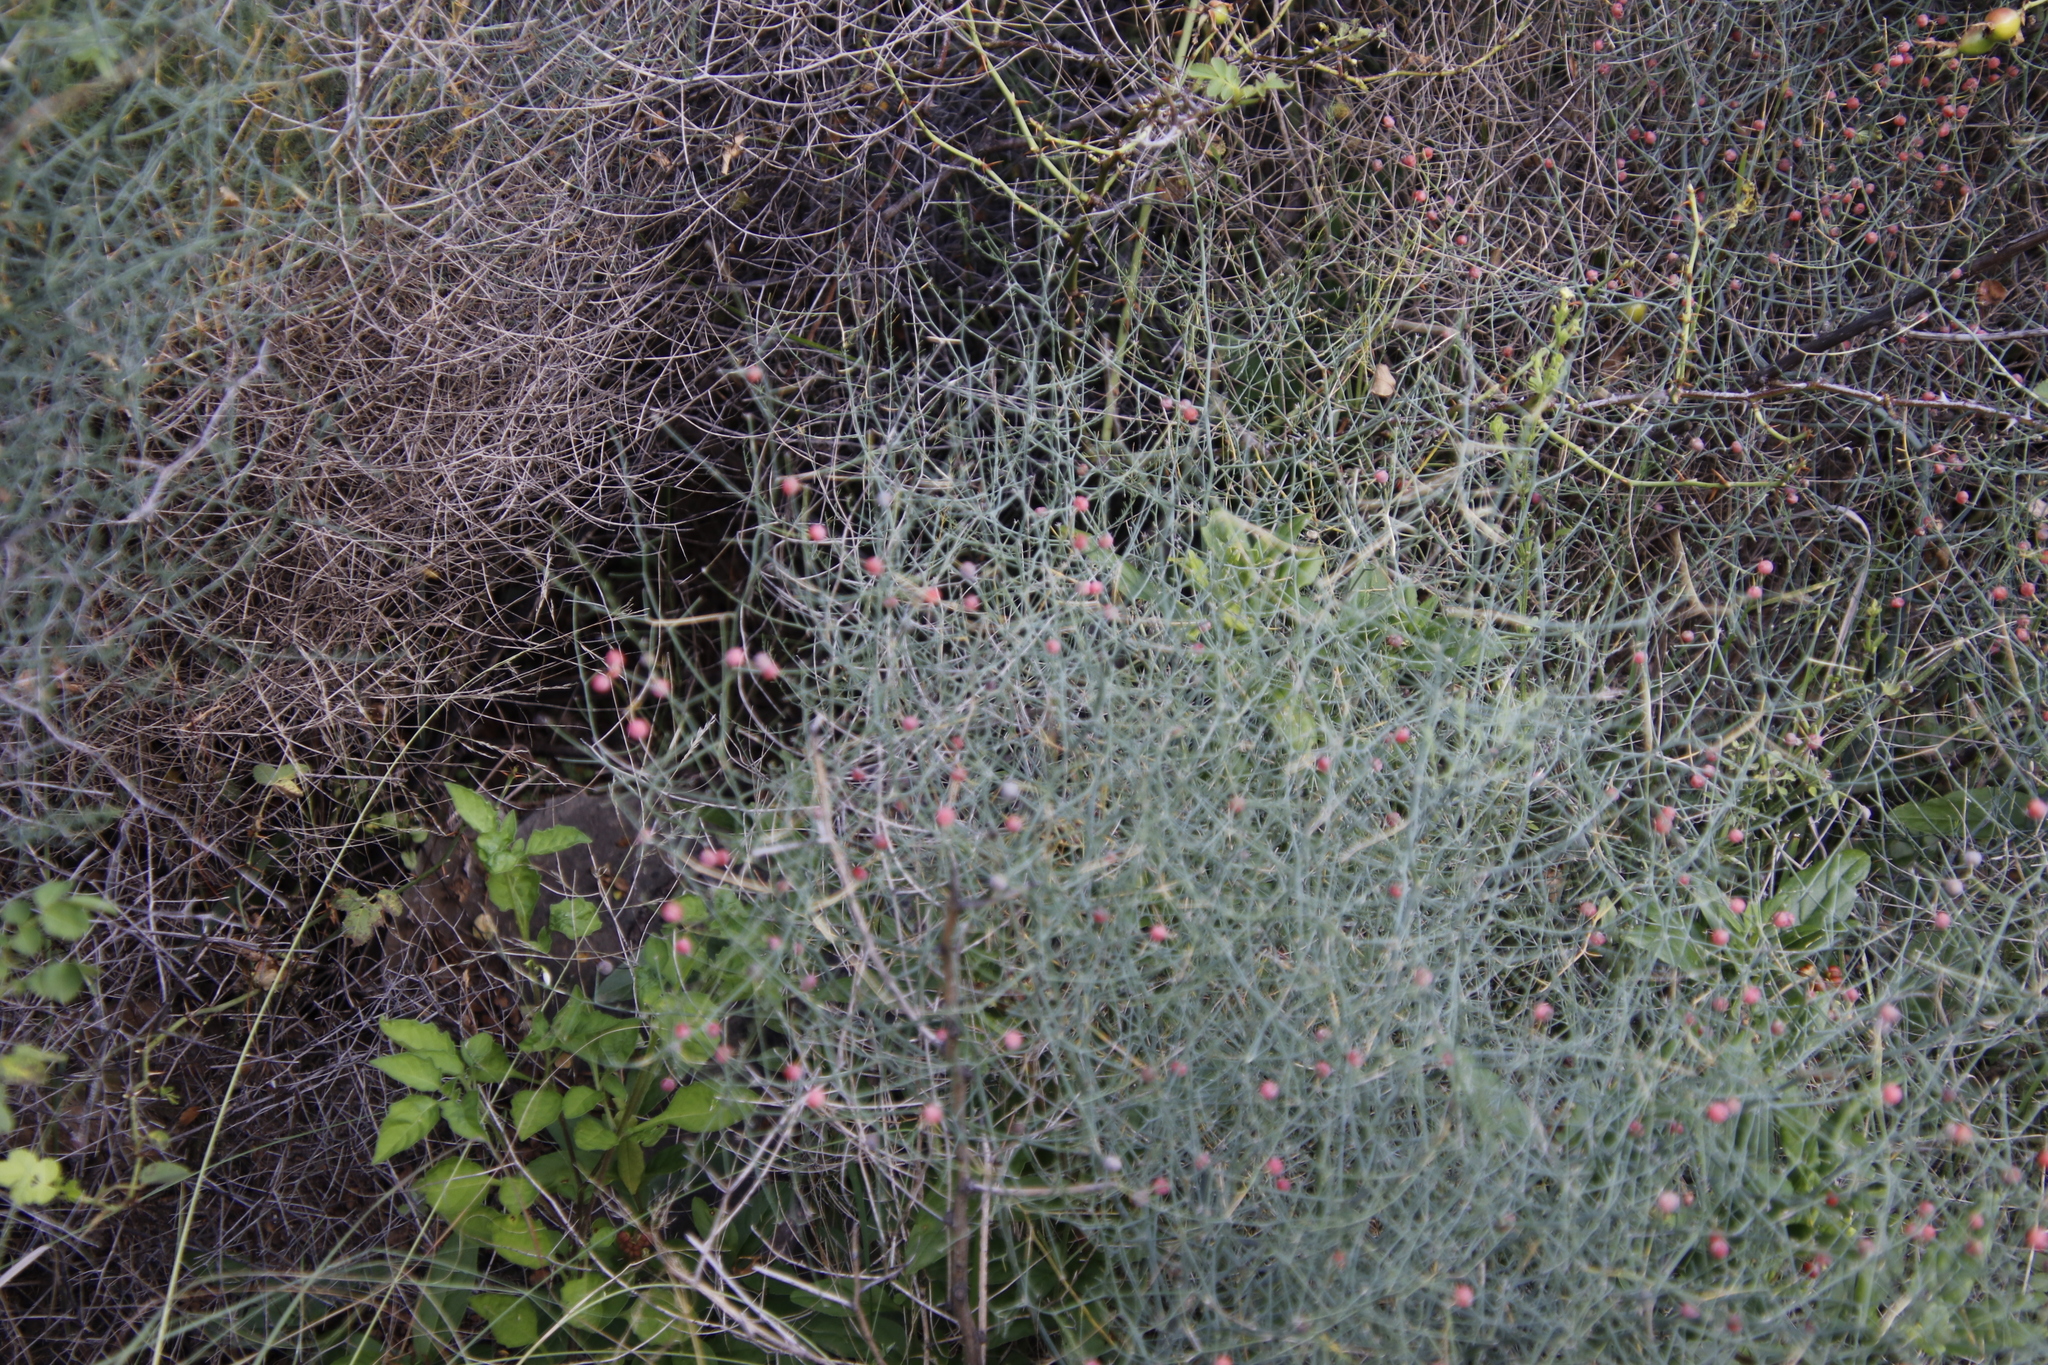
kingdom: Plantae
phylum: Tracheophyta
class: Liliopsida
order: Asparagales
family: Asparagaceae
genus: Asparagus
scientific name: Asparagus denudatus
